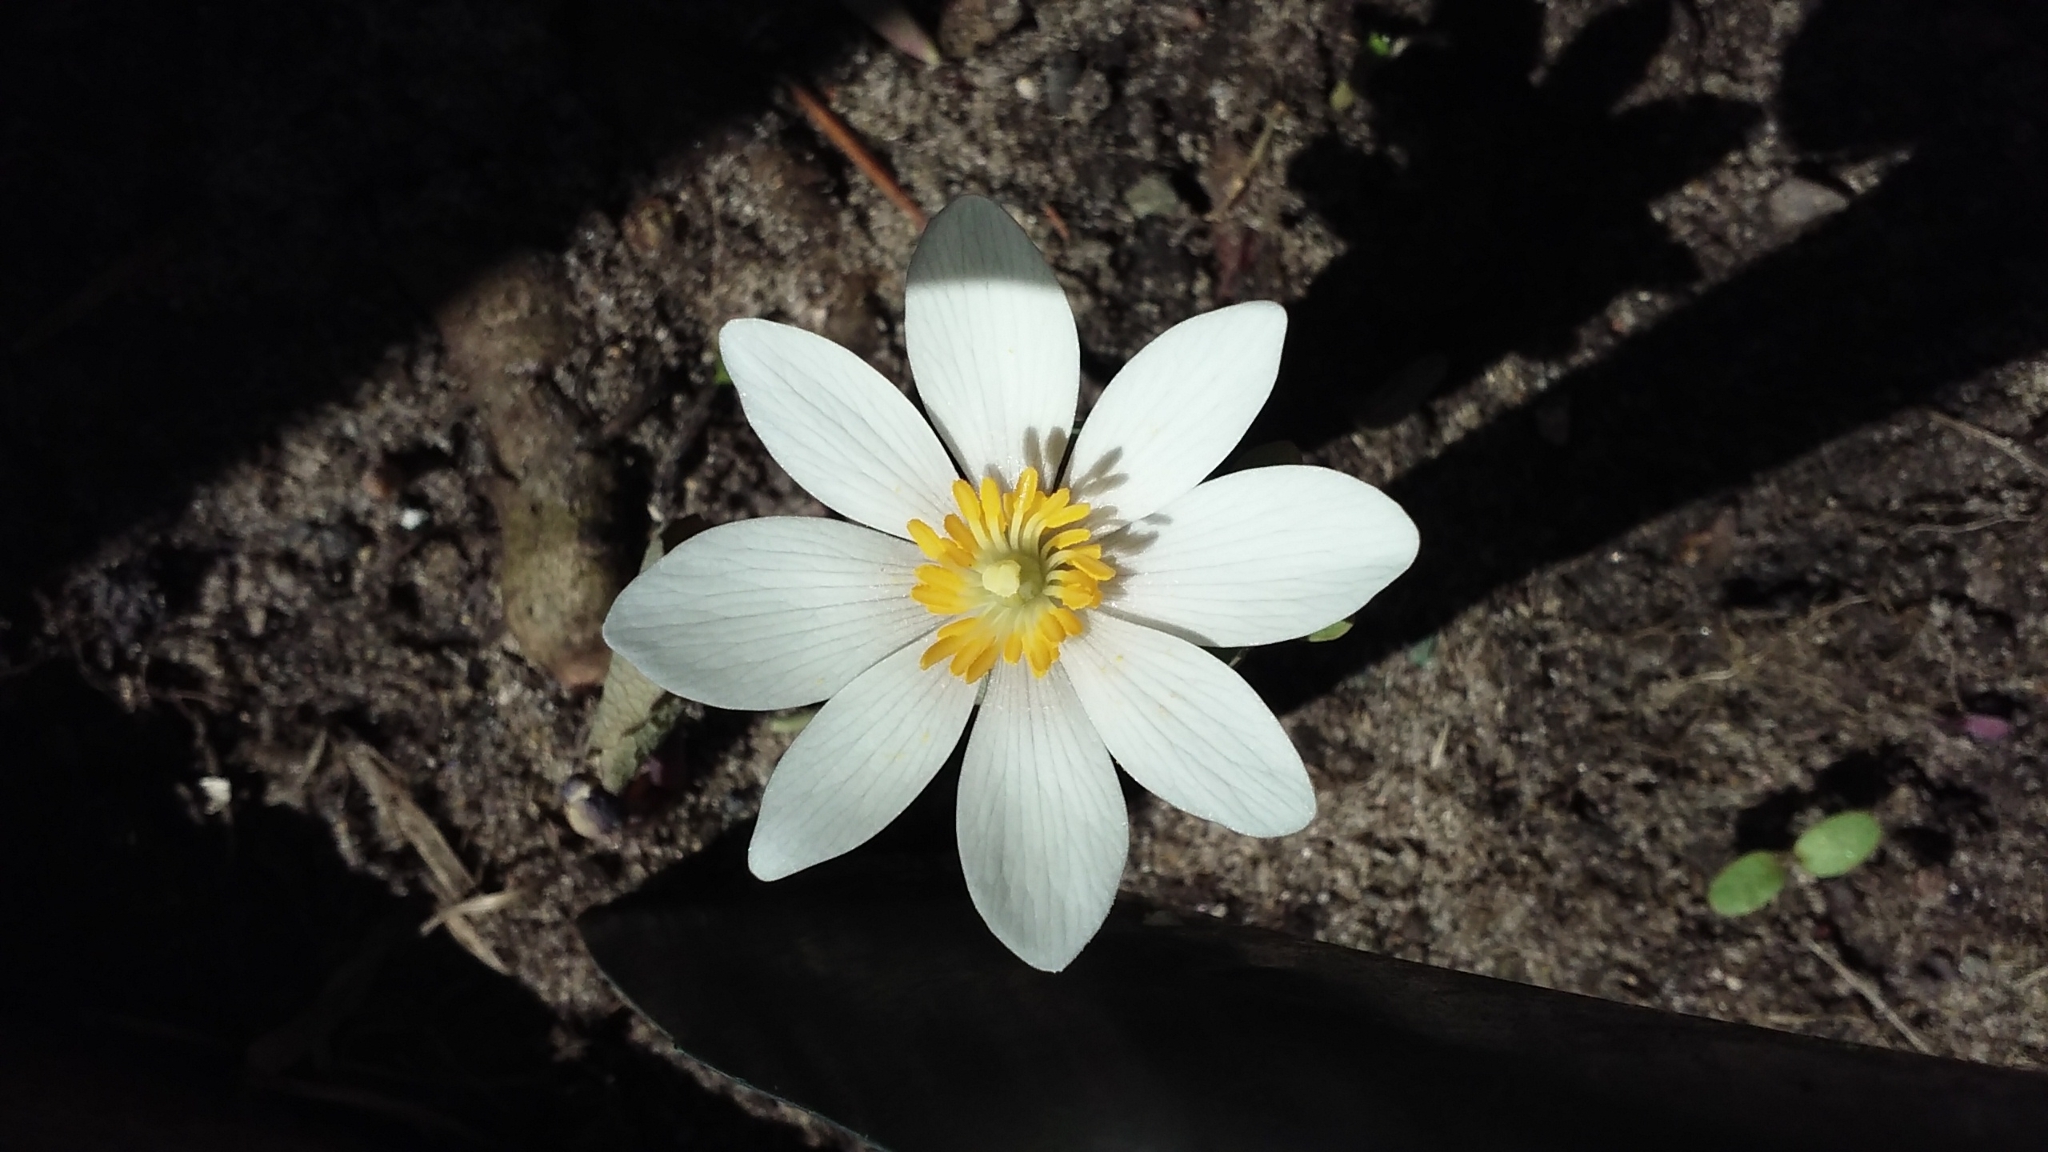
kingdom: Plantae
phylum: Tracheophyta
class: Magnoliopsida
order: Ranunculales
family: Papaveraceae
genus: Sanguinaria
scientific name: Sanguinaria canadensis
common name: Bloodroot
